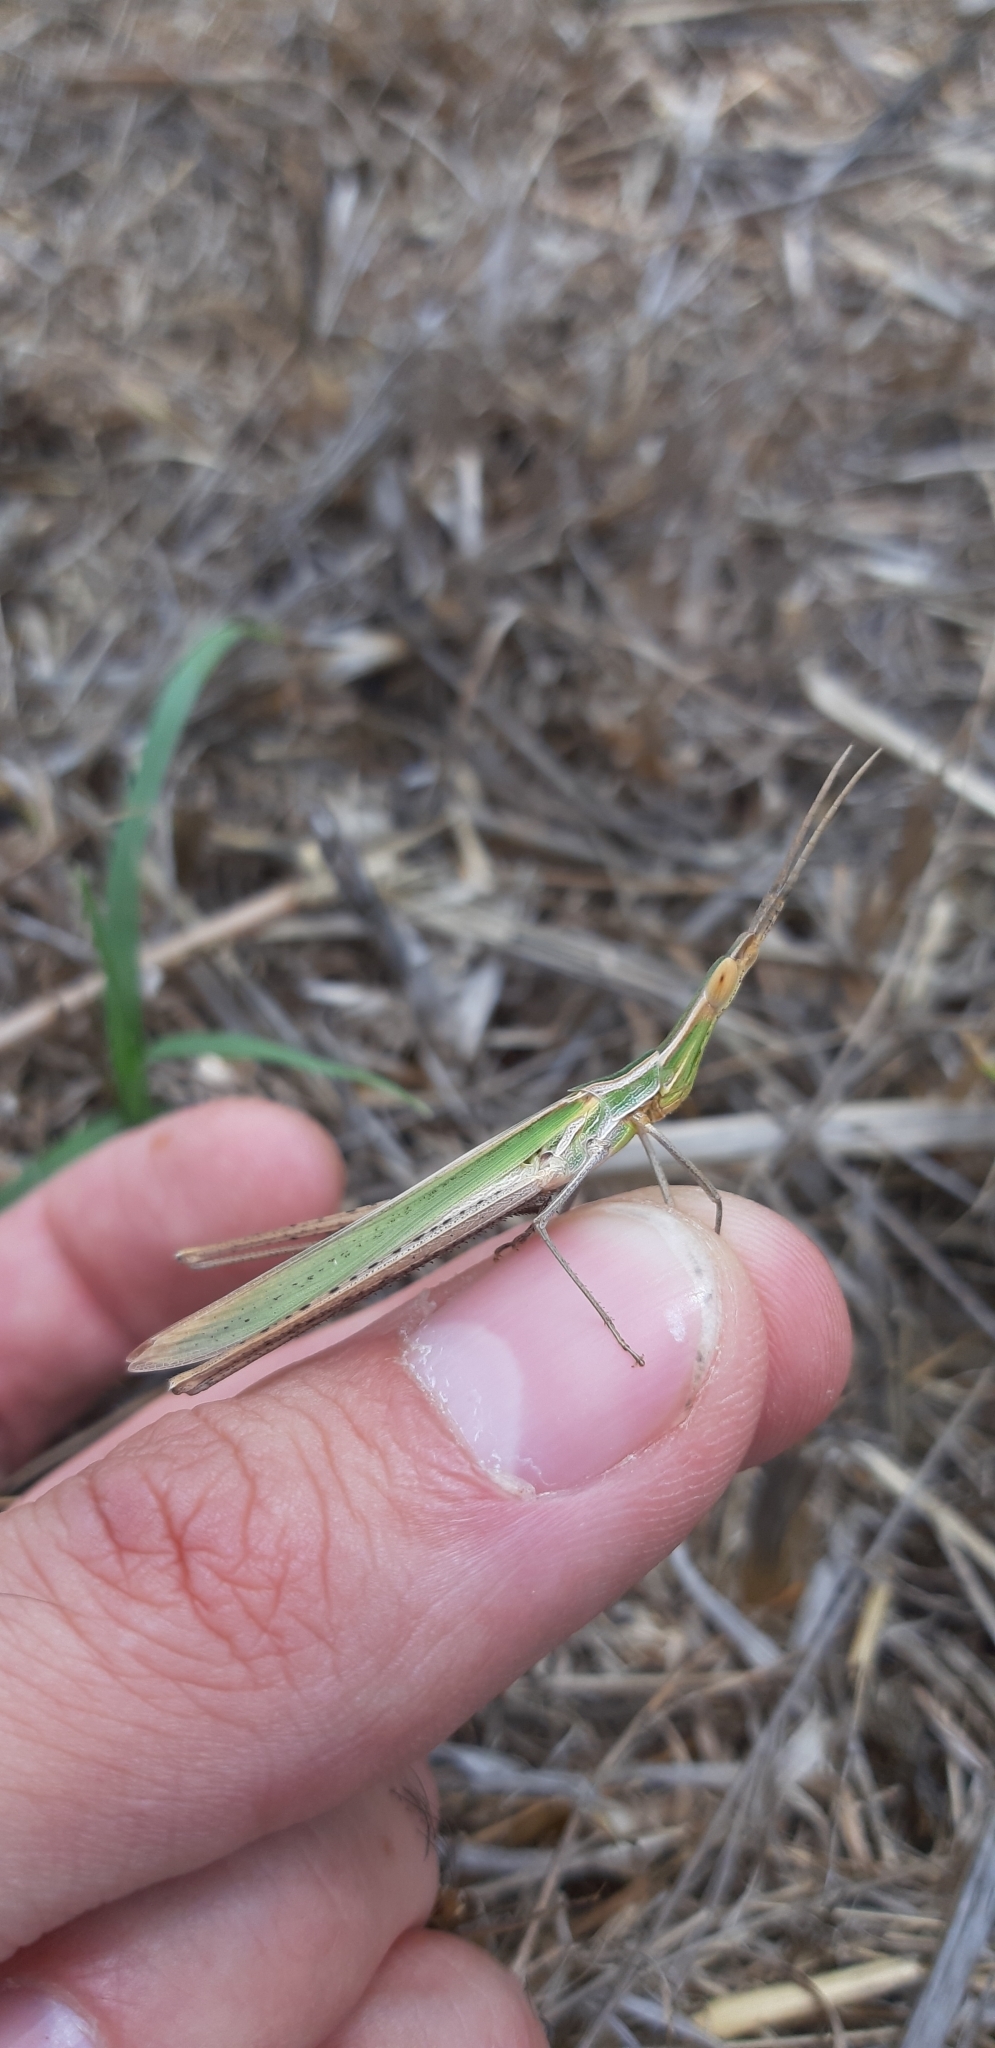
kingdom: Animalia
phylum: Arthropoda
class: Insecta
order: Orthoptera
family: Acrididae
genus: Acrida
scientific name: Acrida ungarica
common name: Common cone-headed grasshopper
